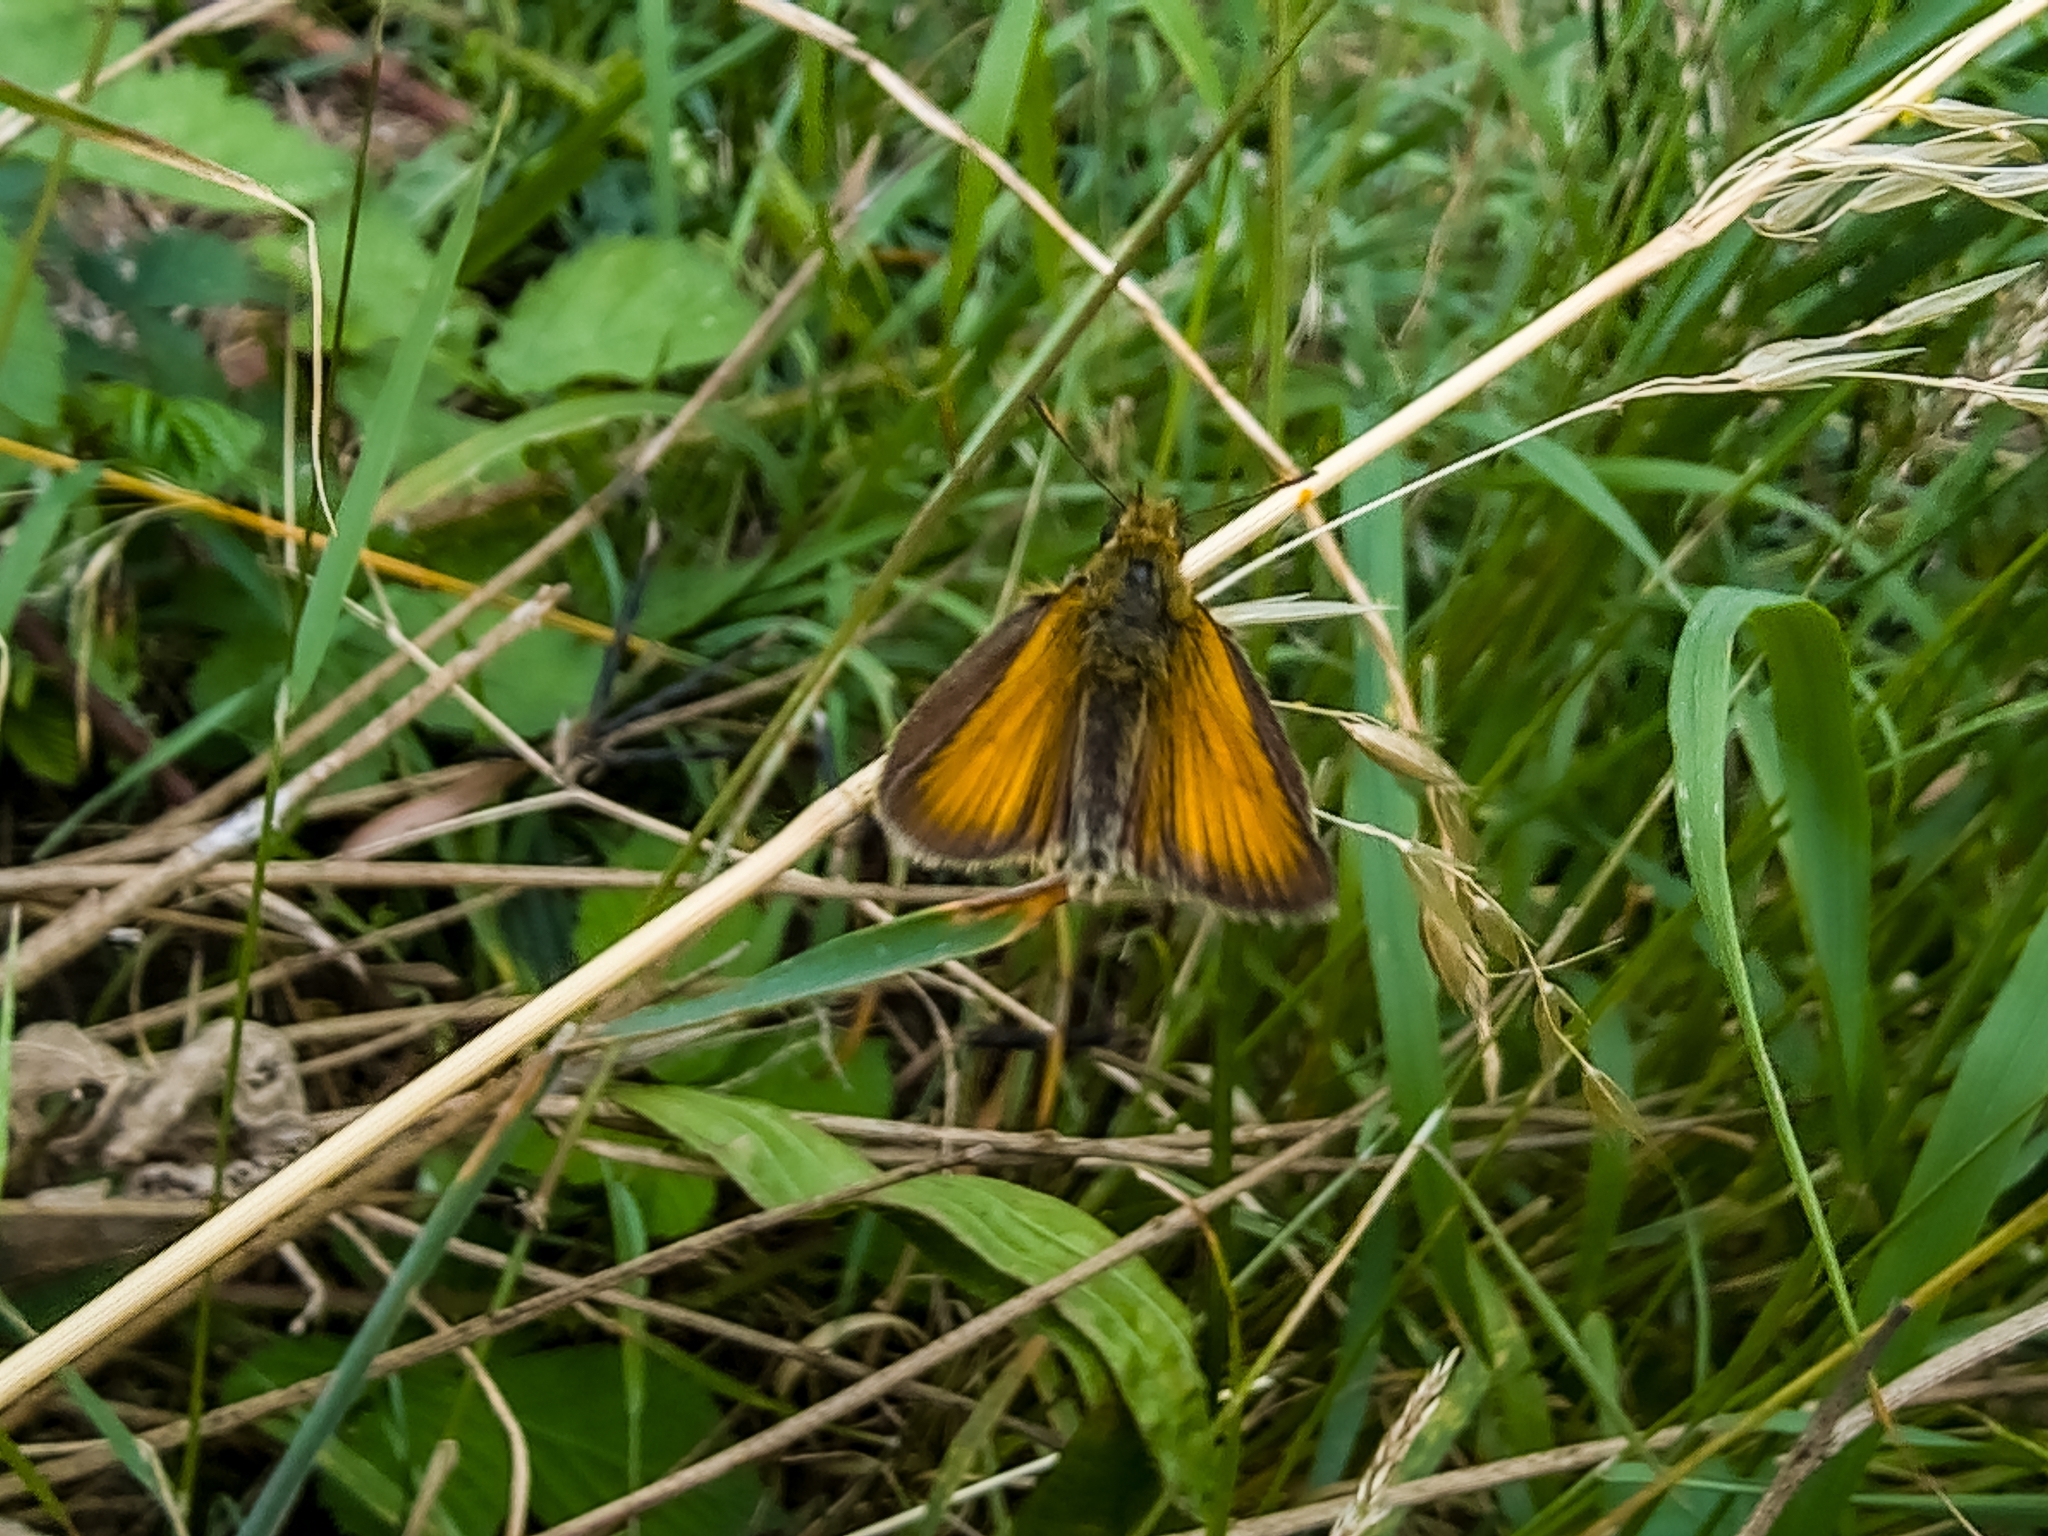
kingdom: Animalia
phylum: Arthropoda
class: Insecta
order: Lepidoptera
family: Hesperiidae
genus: Thymelicus
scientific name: Thymelicus lineola
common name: Essex skipper
